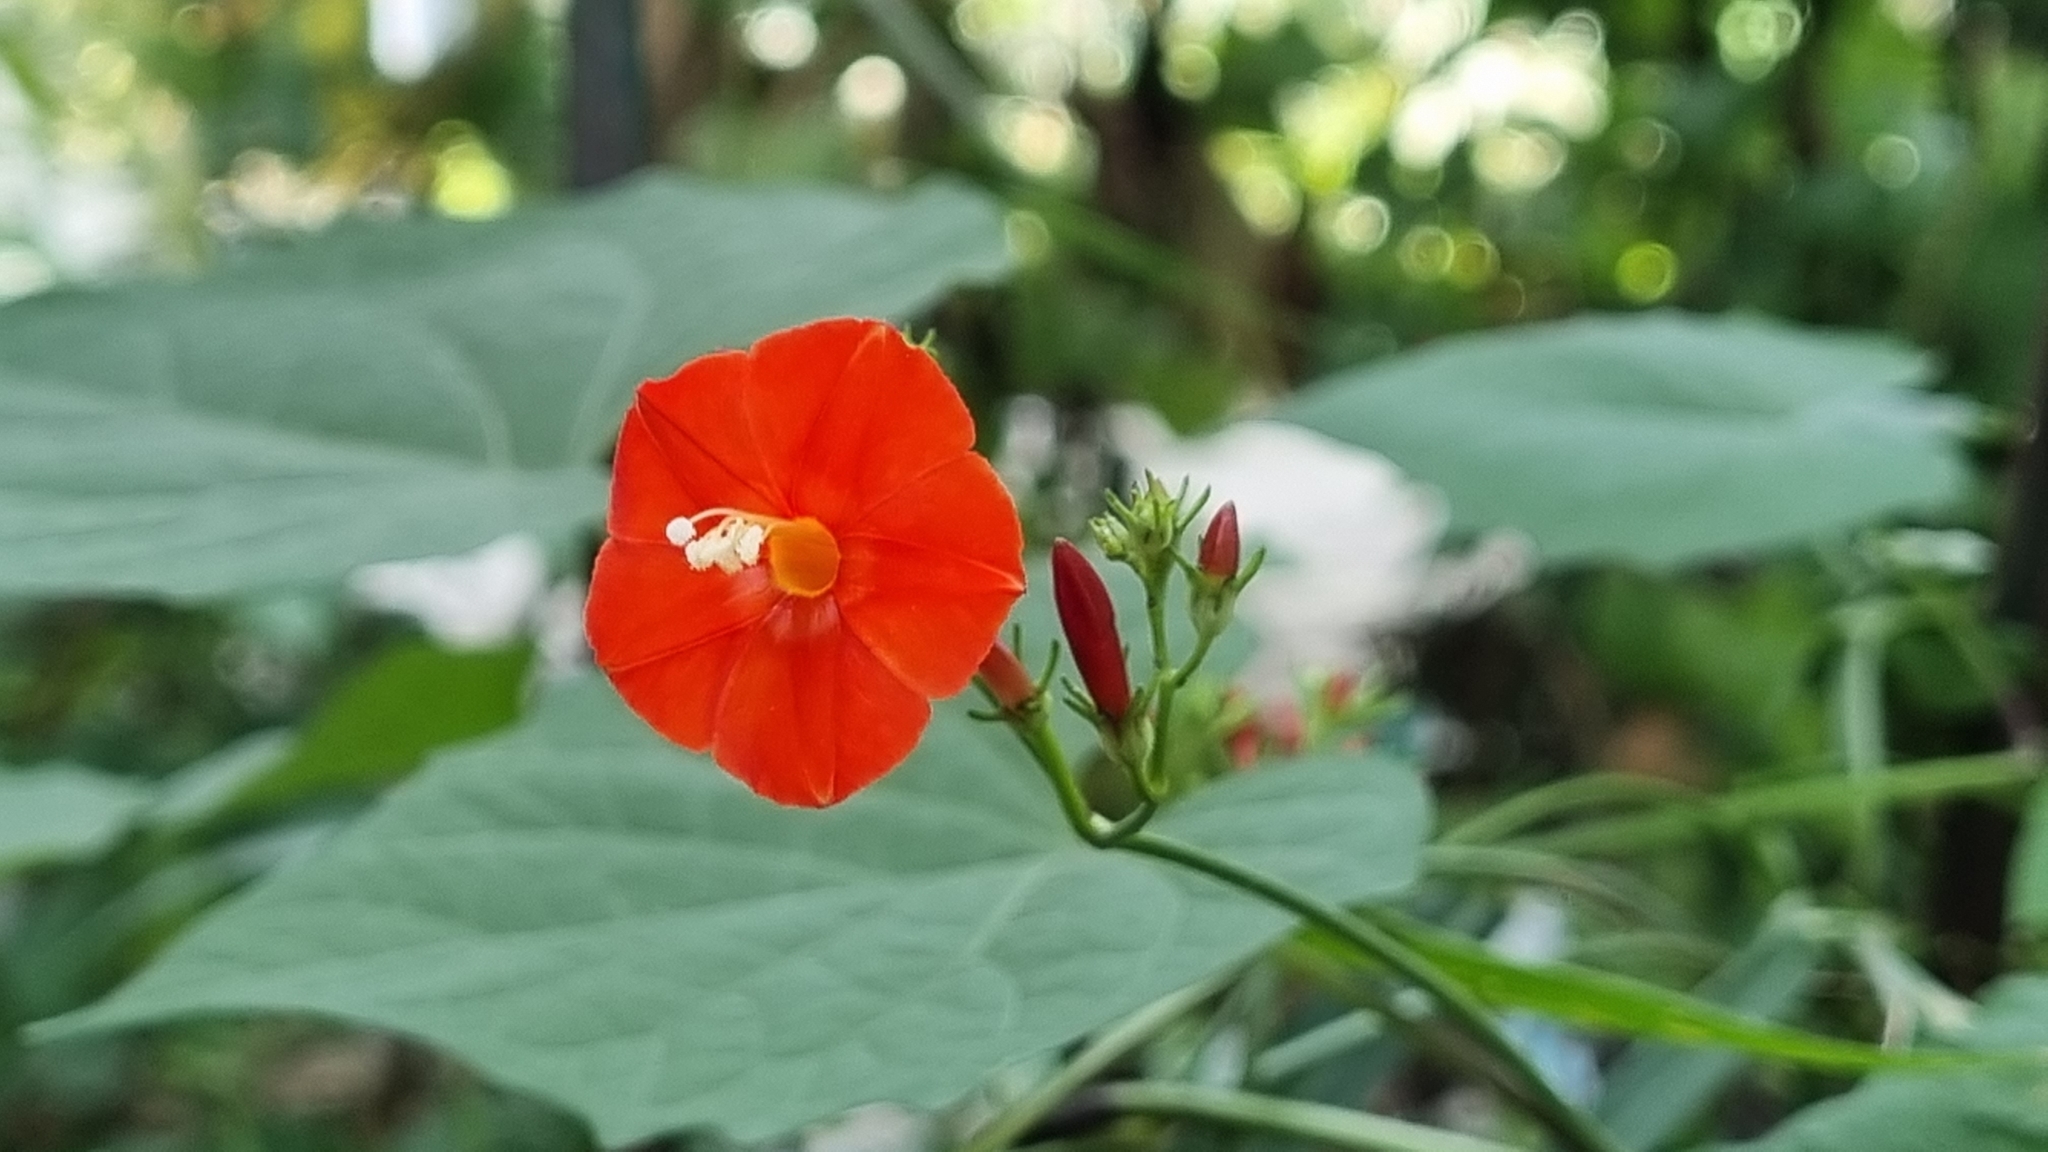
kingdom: Plantae
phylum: Tracheophyta
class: Magnoliopsida
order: Solanales
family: Convolvulaceae
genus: Ipomoea
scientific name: Ipomoea hederifolia
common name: Ivy-leaf morning-glory
